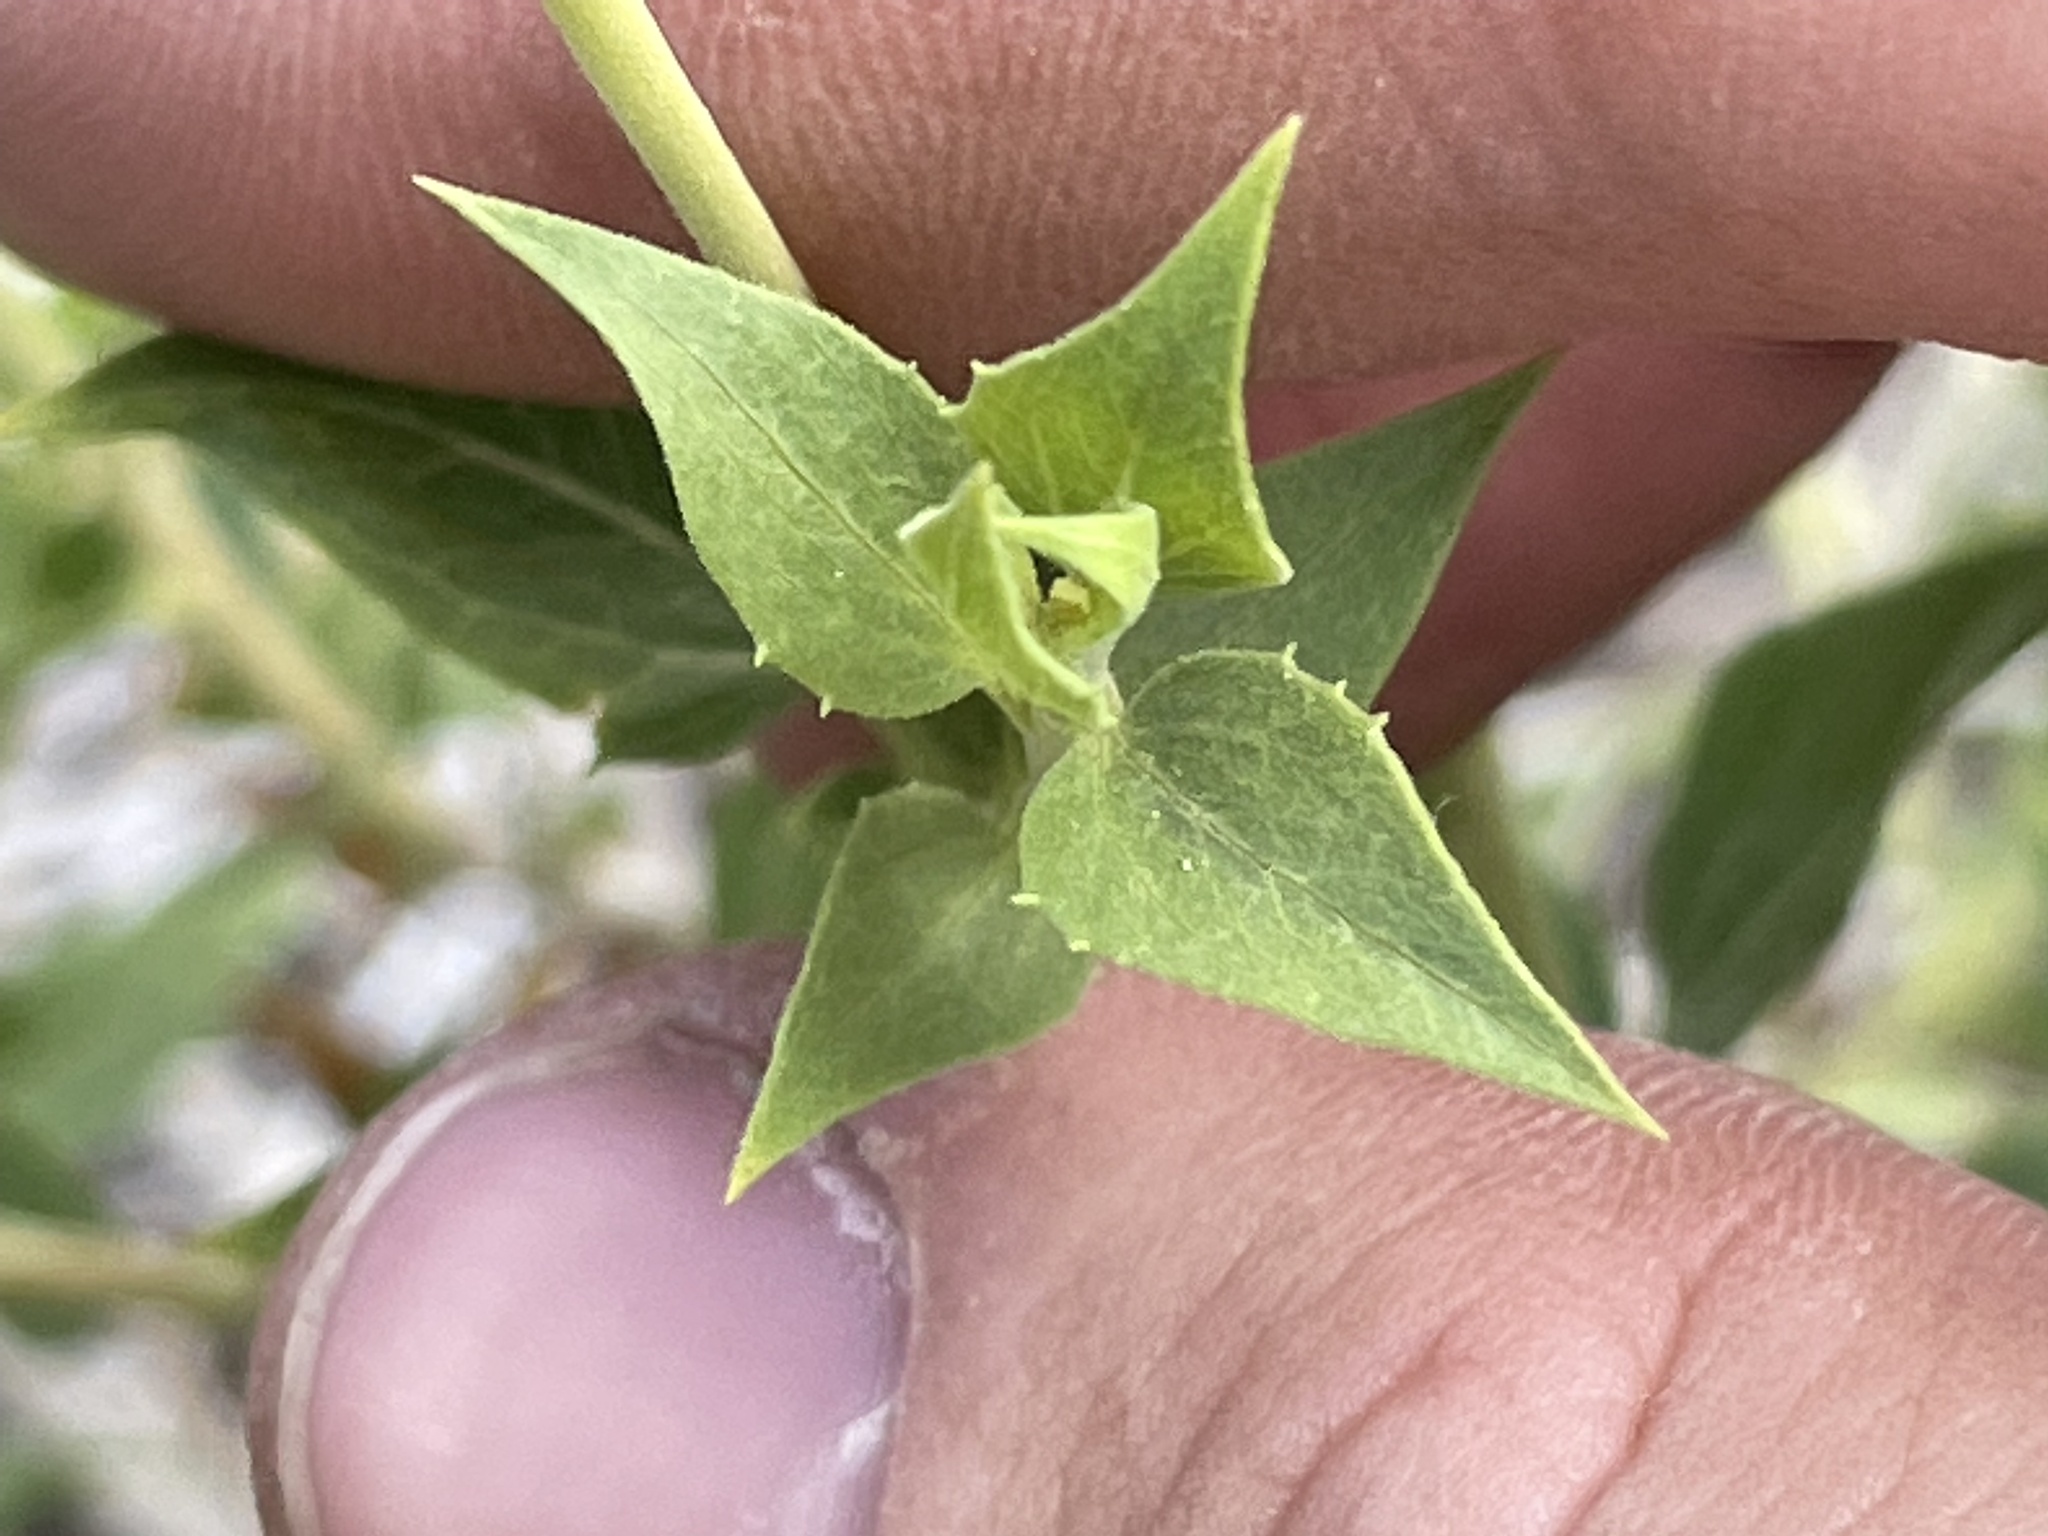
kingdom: Plantae
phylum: Tracheophyta
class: Magnoliopsida
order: Asterales
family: Asteraceae
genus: Brickellia
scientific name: Brickellia atractyloides
